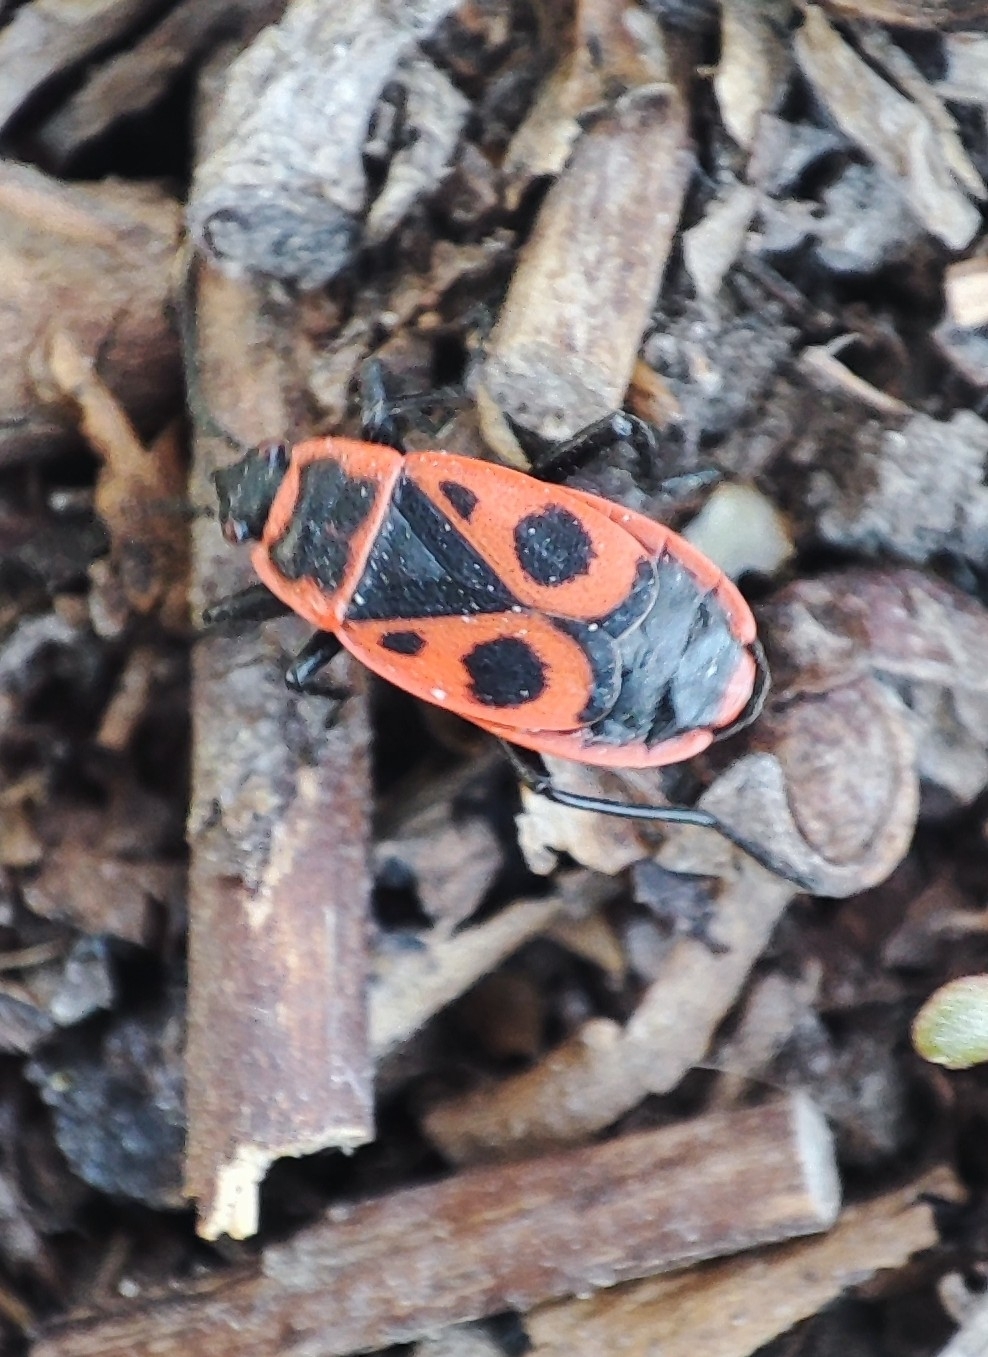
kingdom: Animalia
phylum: Arthropoda
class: Insecta
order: Hemiptera
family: Pyrrhocoridae
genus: Pyrrhocoris
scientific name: Pyrrhocoris apterus
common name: Firebug
